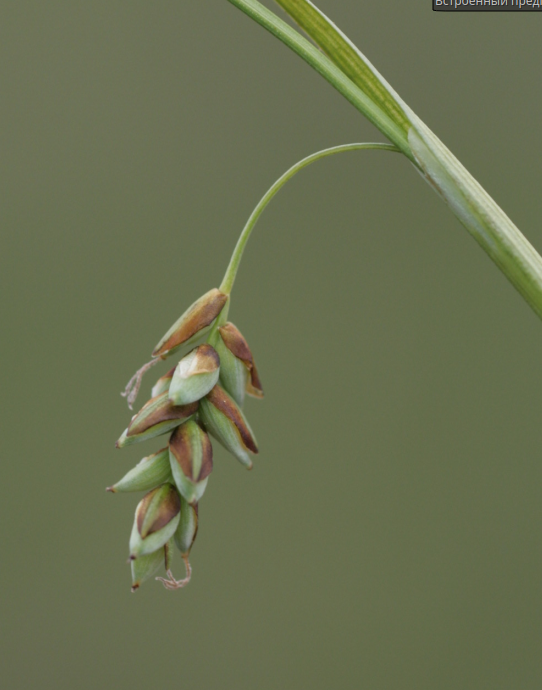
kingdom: Plantae
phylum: Tracheophyta
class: Liliopsida
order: Poales
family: Cyperaceae
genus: Carex
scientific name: Carex limosa
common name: Bog sedge
